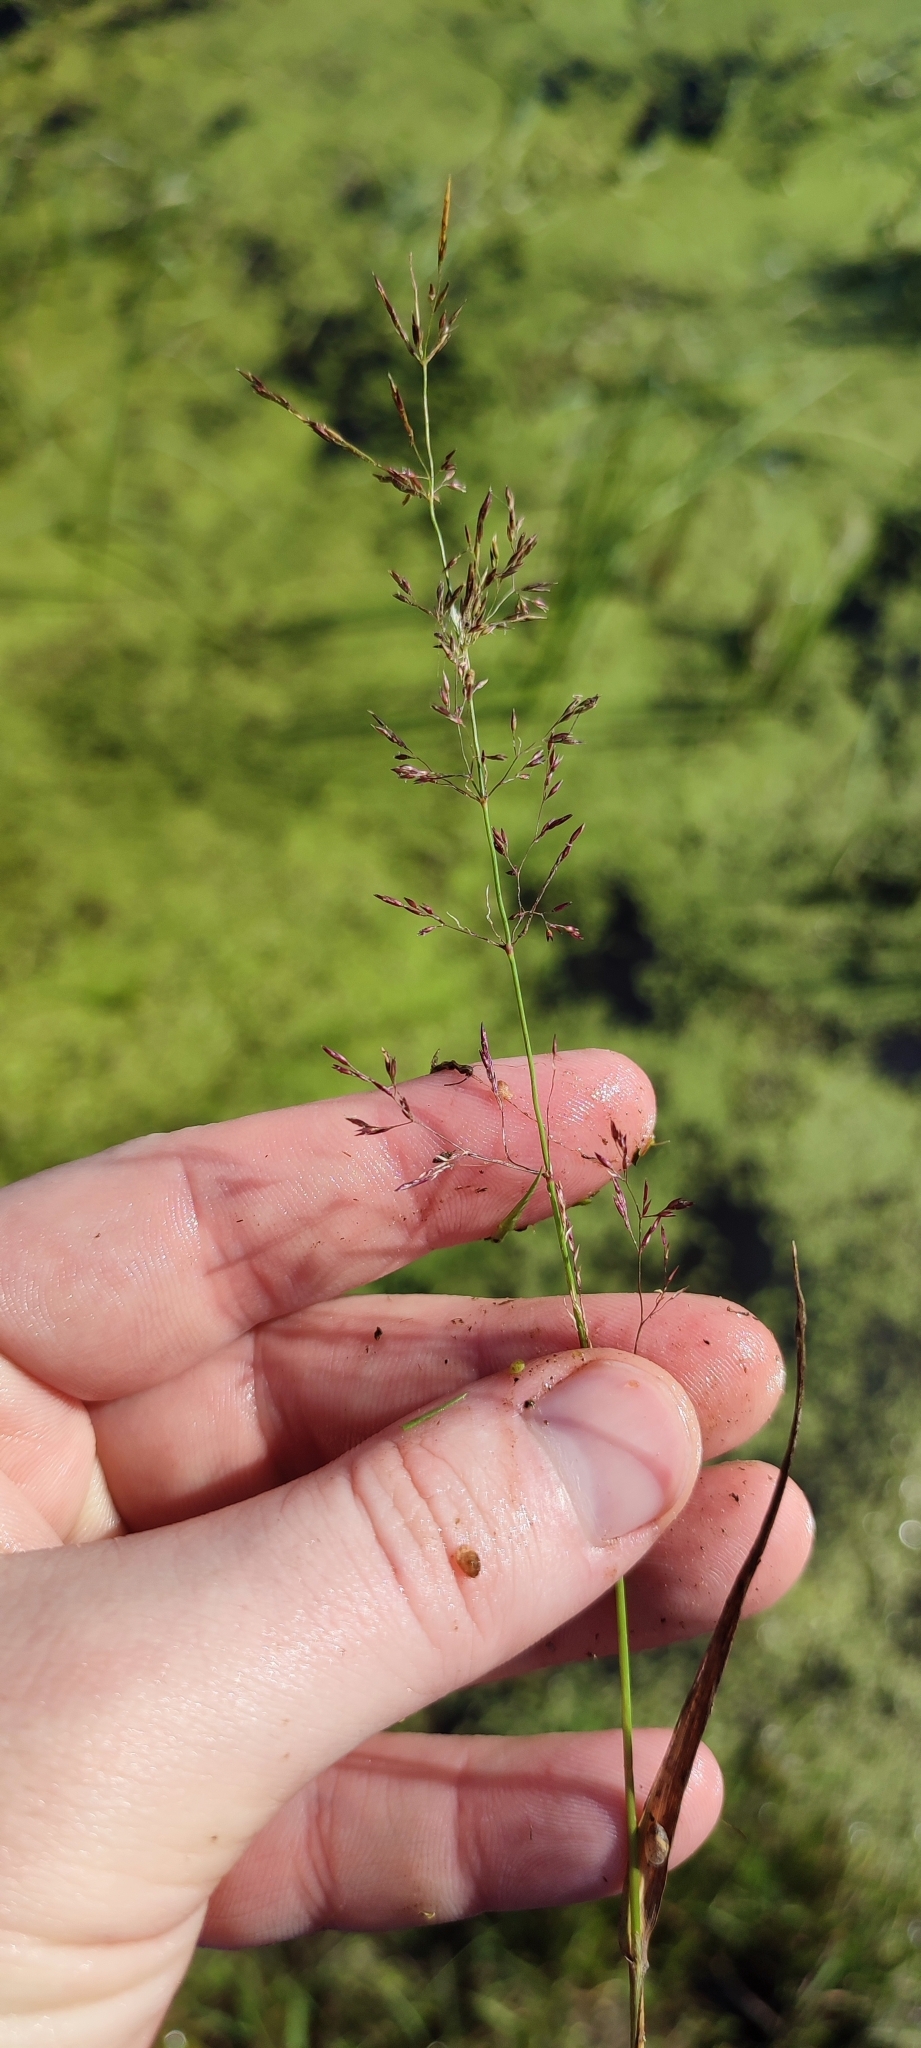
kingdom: Plantae
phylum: Tracheophyta
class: Liliopsida
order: Poales
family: Poaceae
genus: Agrostis
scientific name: Agrostis stolonifera
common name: Creeping bentgrass
